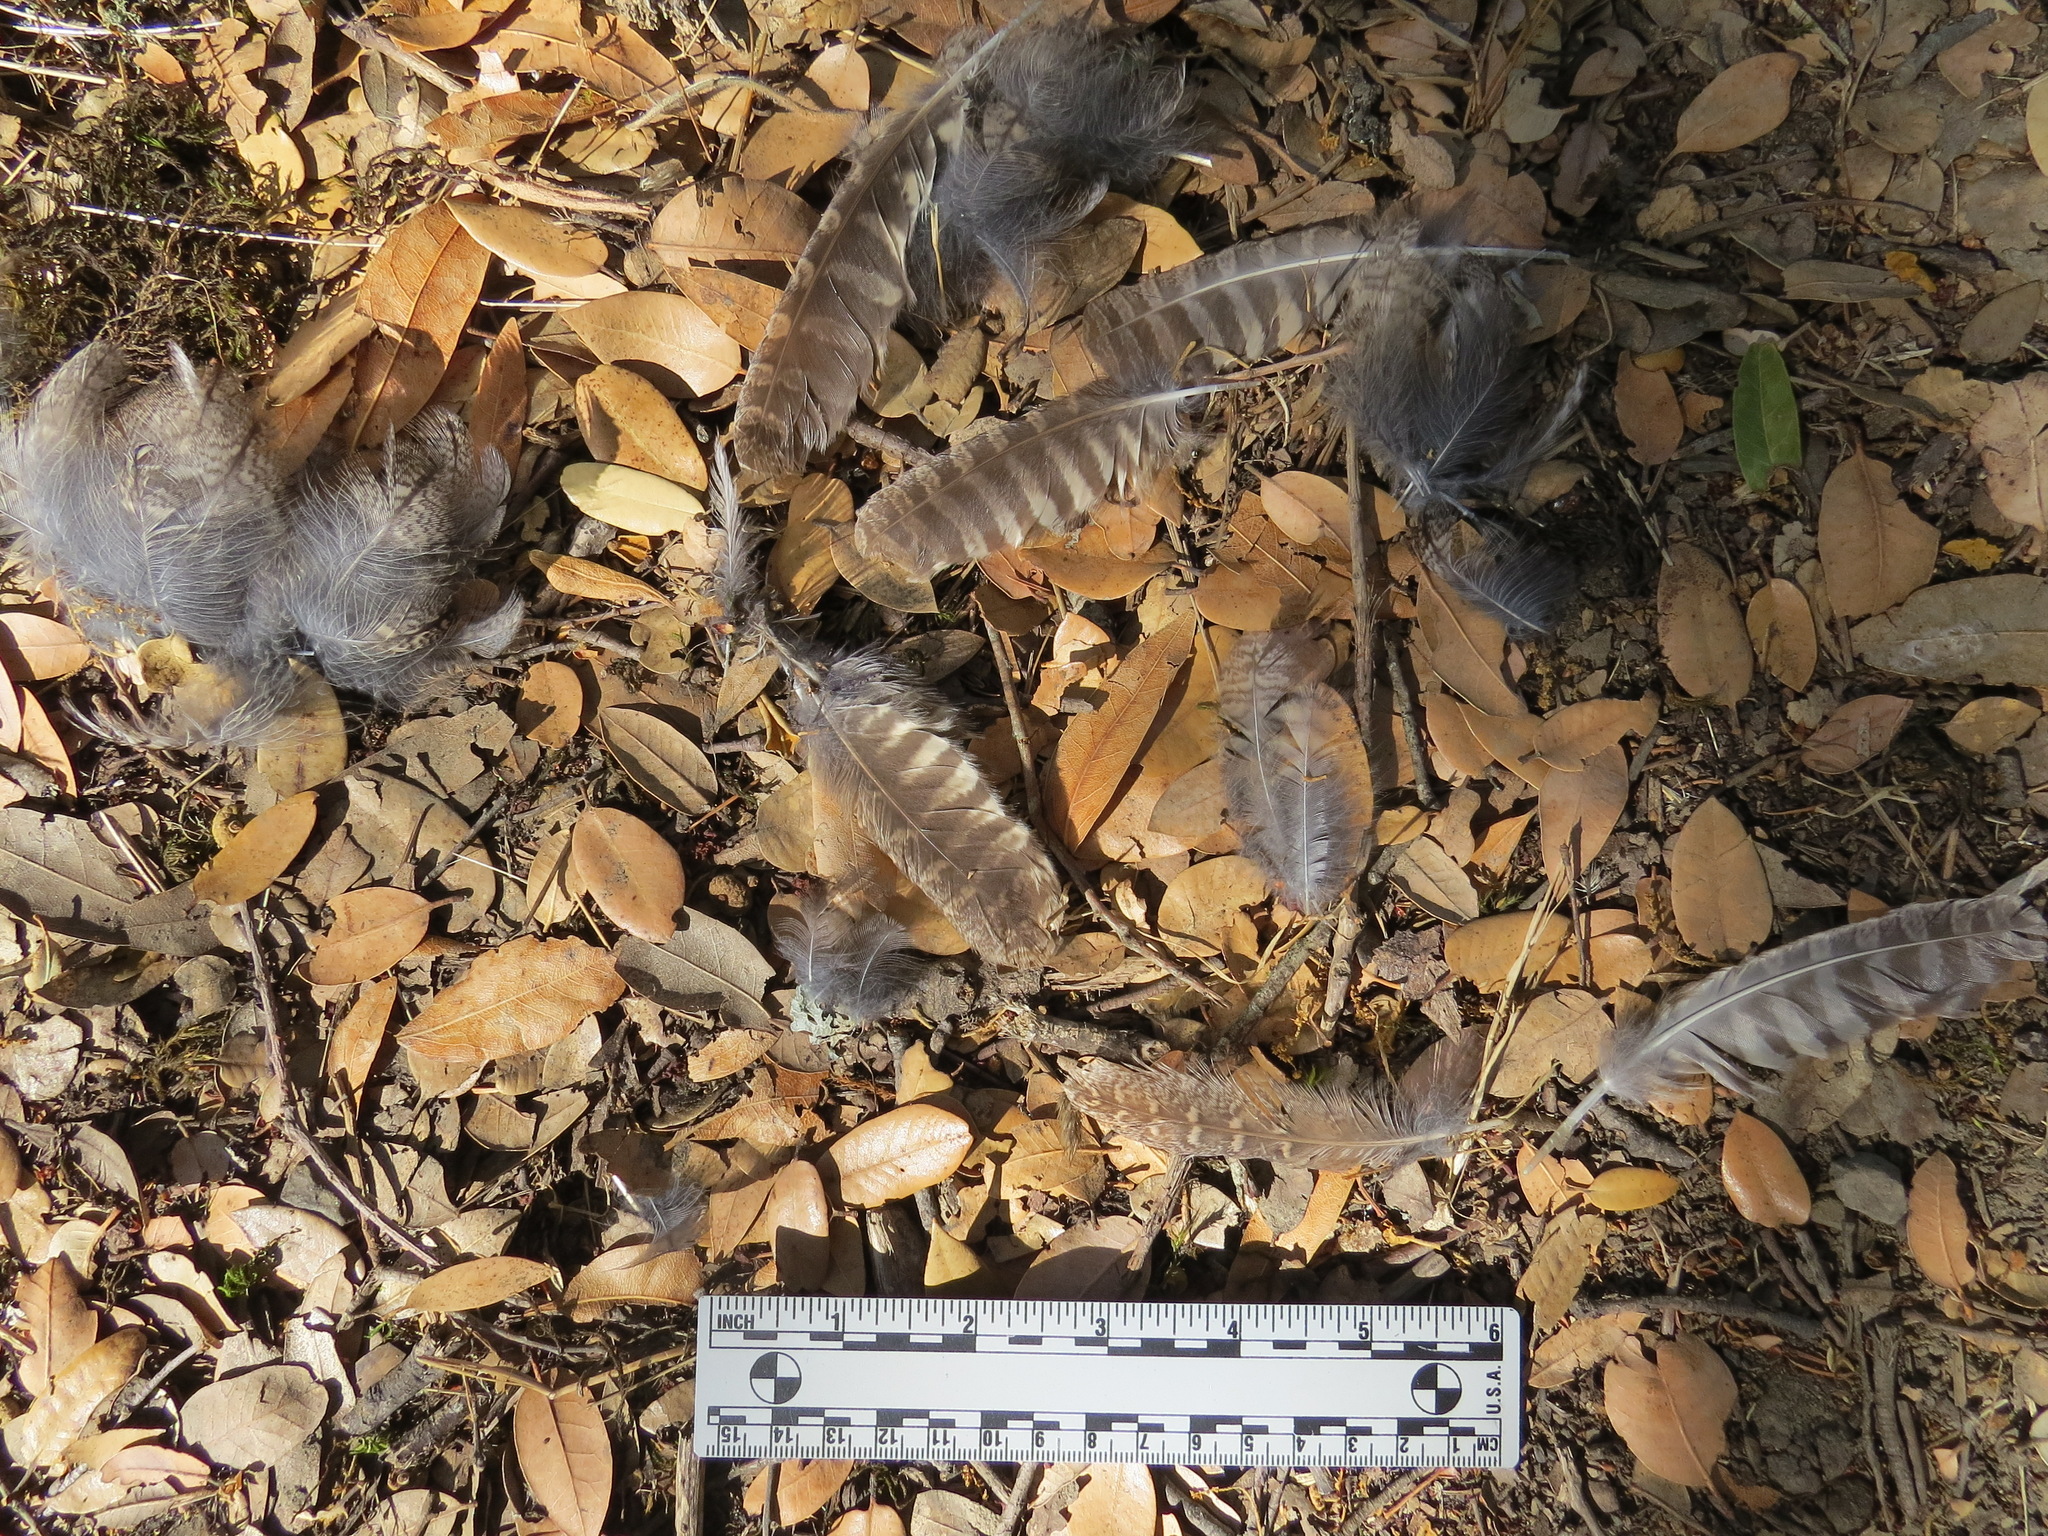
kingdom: Animalia
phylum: Chordata
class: Aves
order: Strigiformes
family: Strigidae
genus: Megascops
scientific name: Megascops kennicottii
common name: Western screech-owl
